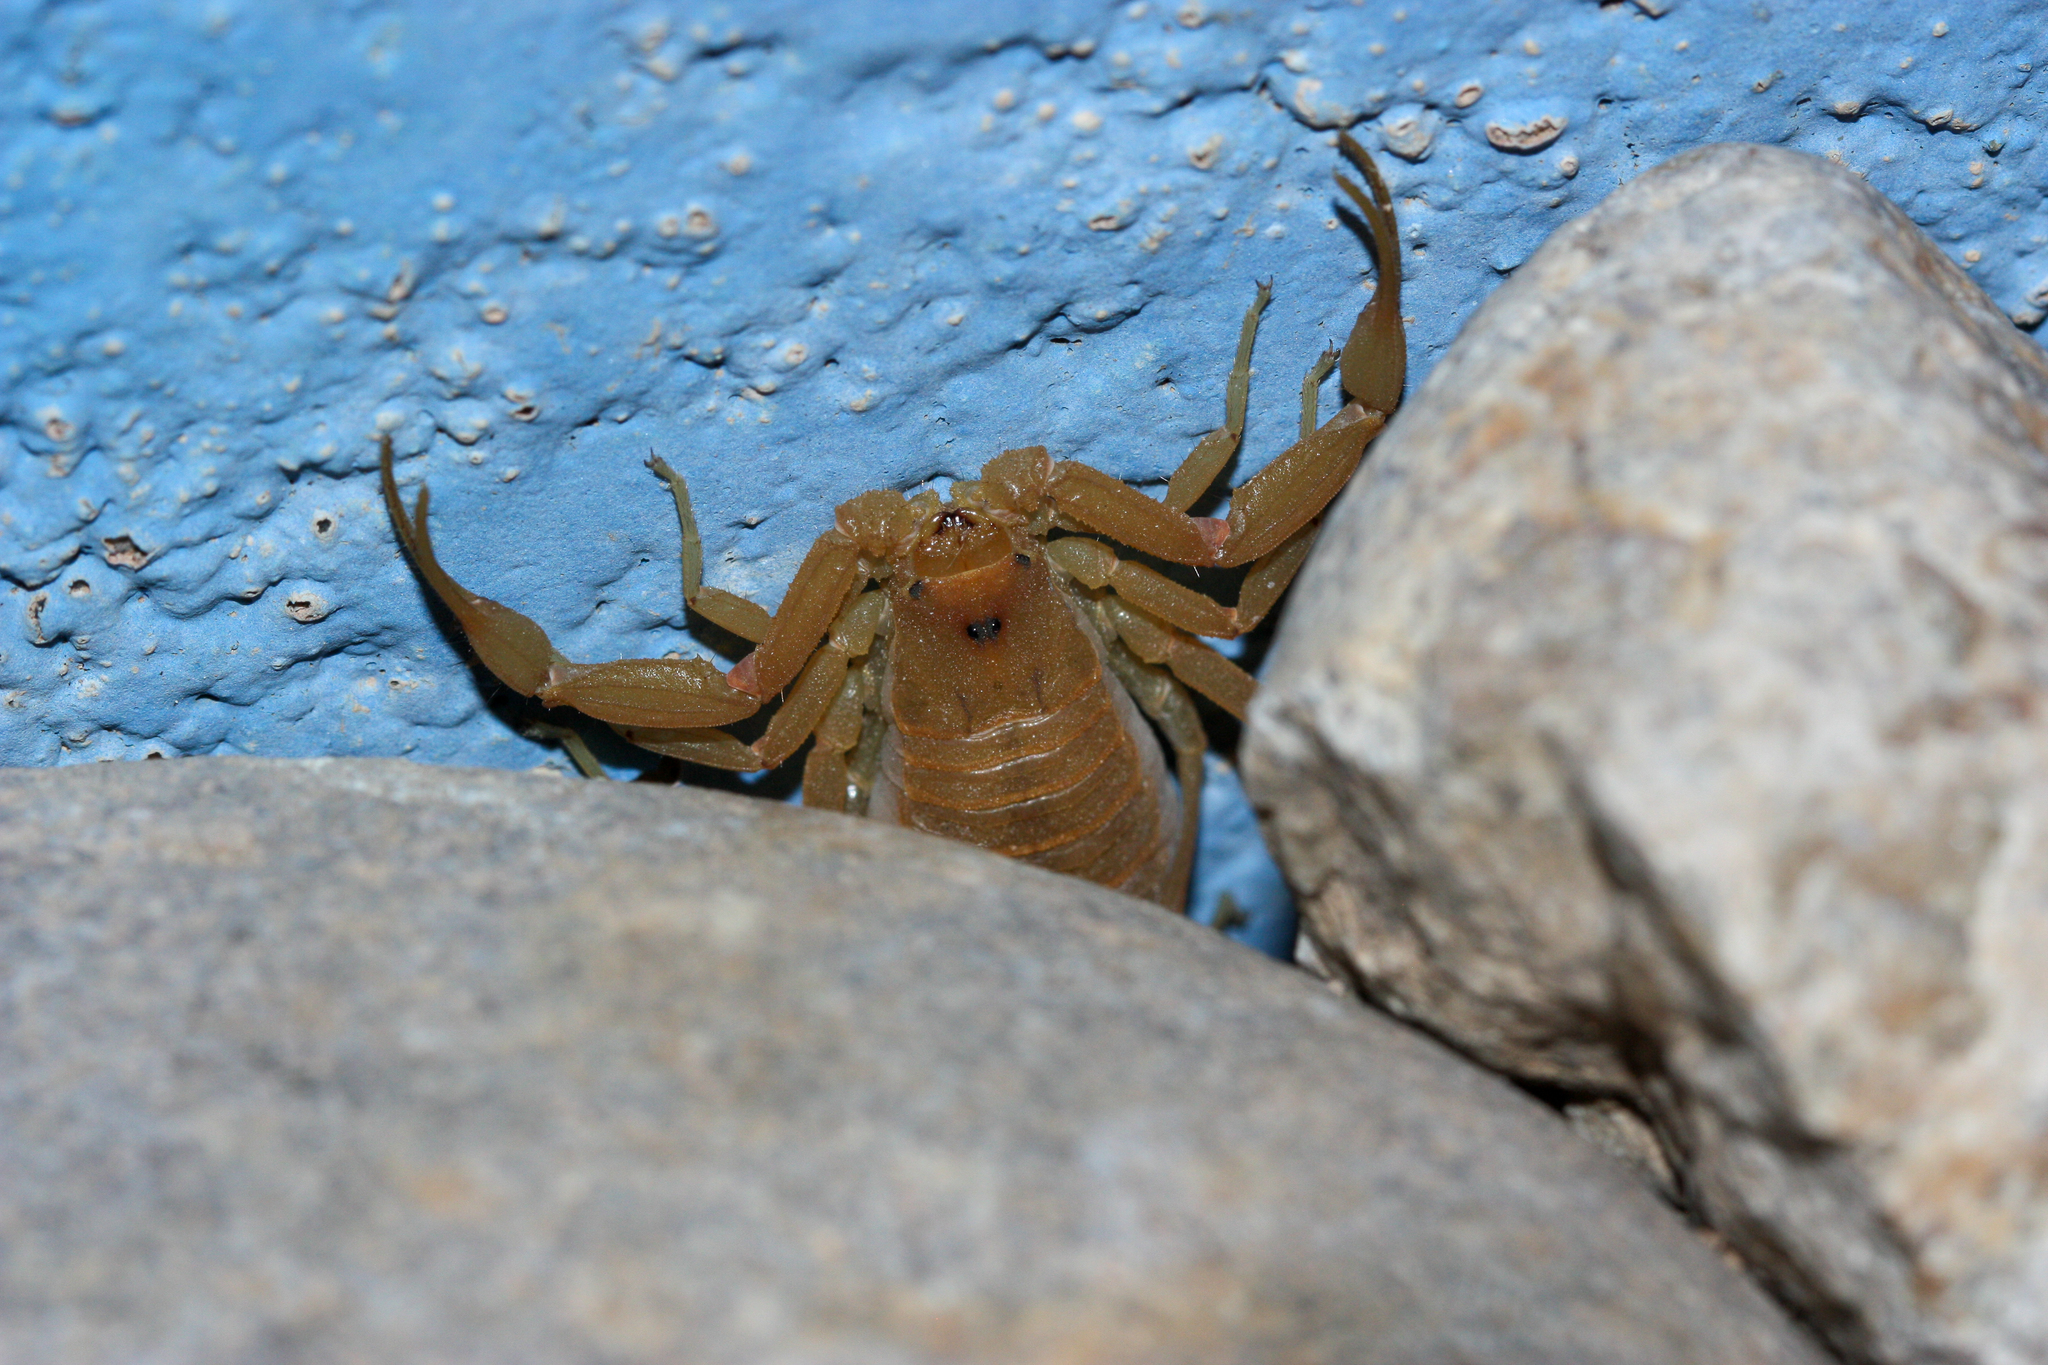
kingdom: Animalia
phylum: Arthropoda
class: Arachnida
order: Scorpiones
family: Buthidae
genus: Centruroides
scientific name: Centruroides sculpturatus
